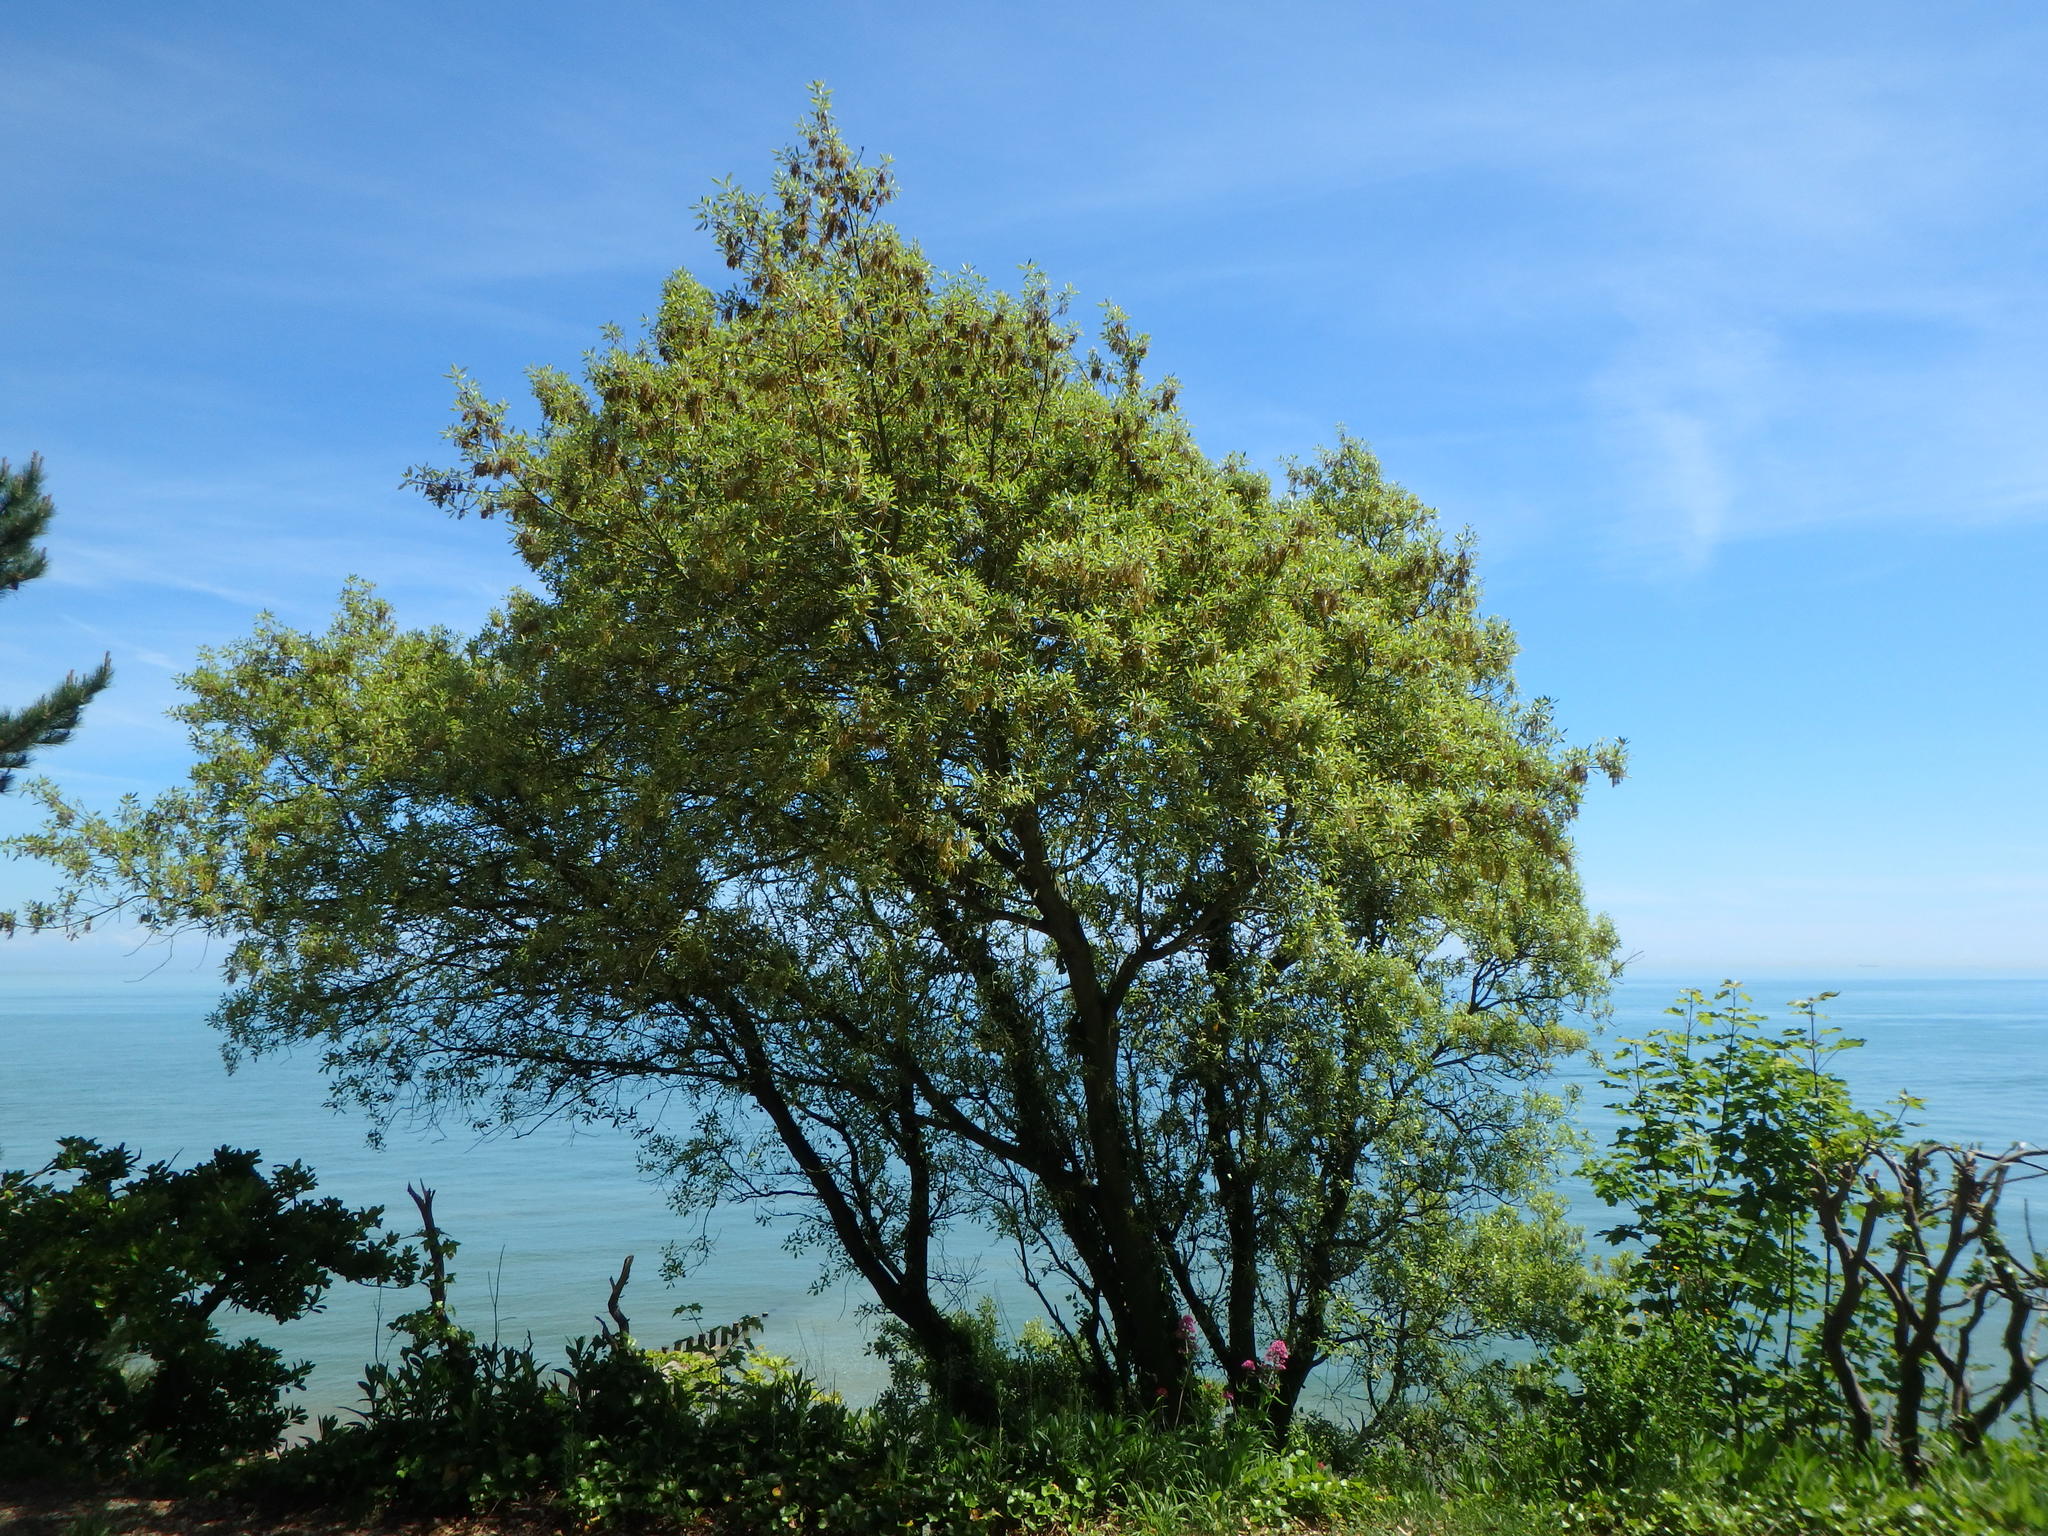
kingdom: Plantae
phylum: Tracheophyta
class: Magnoliopsida
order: Fagales
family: Fagaceae
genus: Quercus
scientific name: Quercus ilex
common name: Evergreen oak
